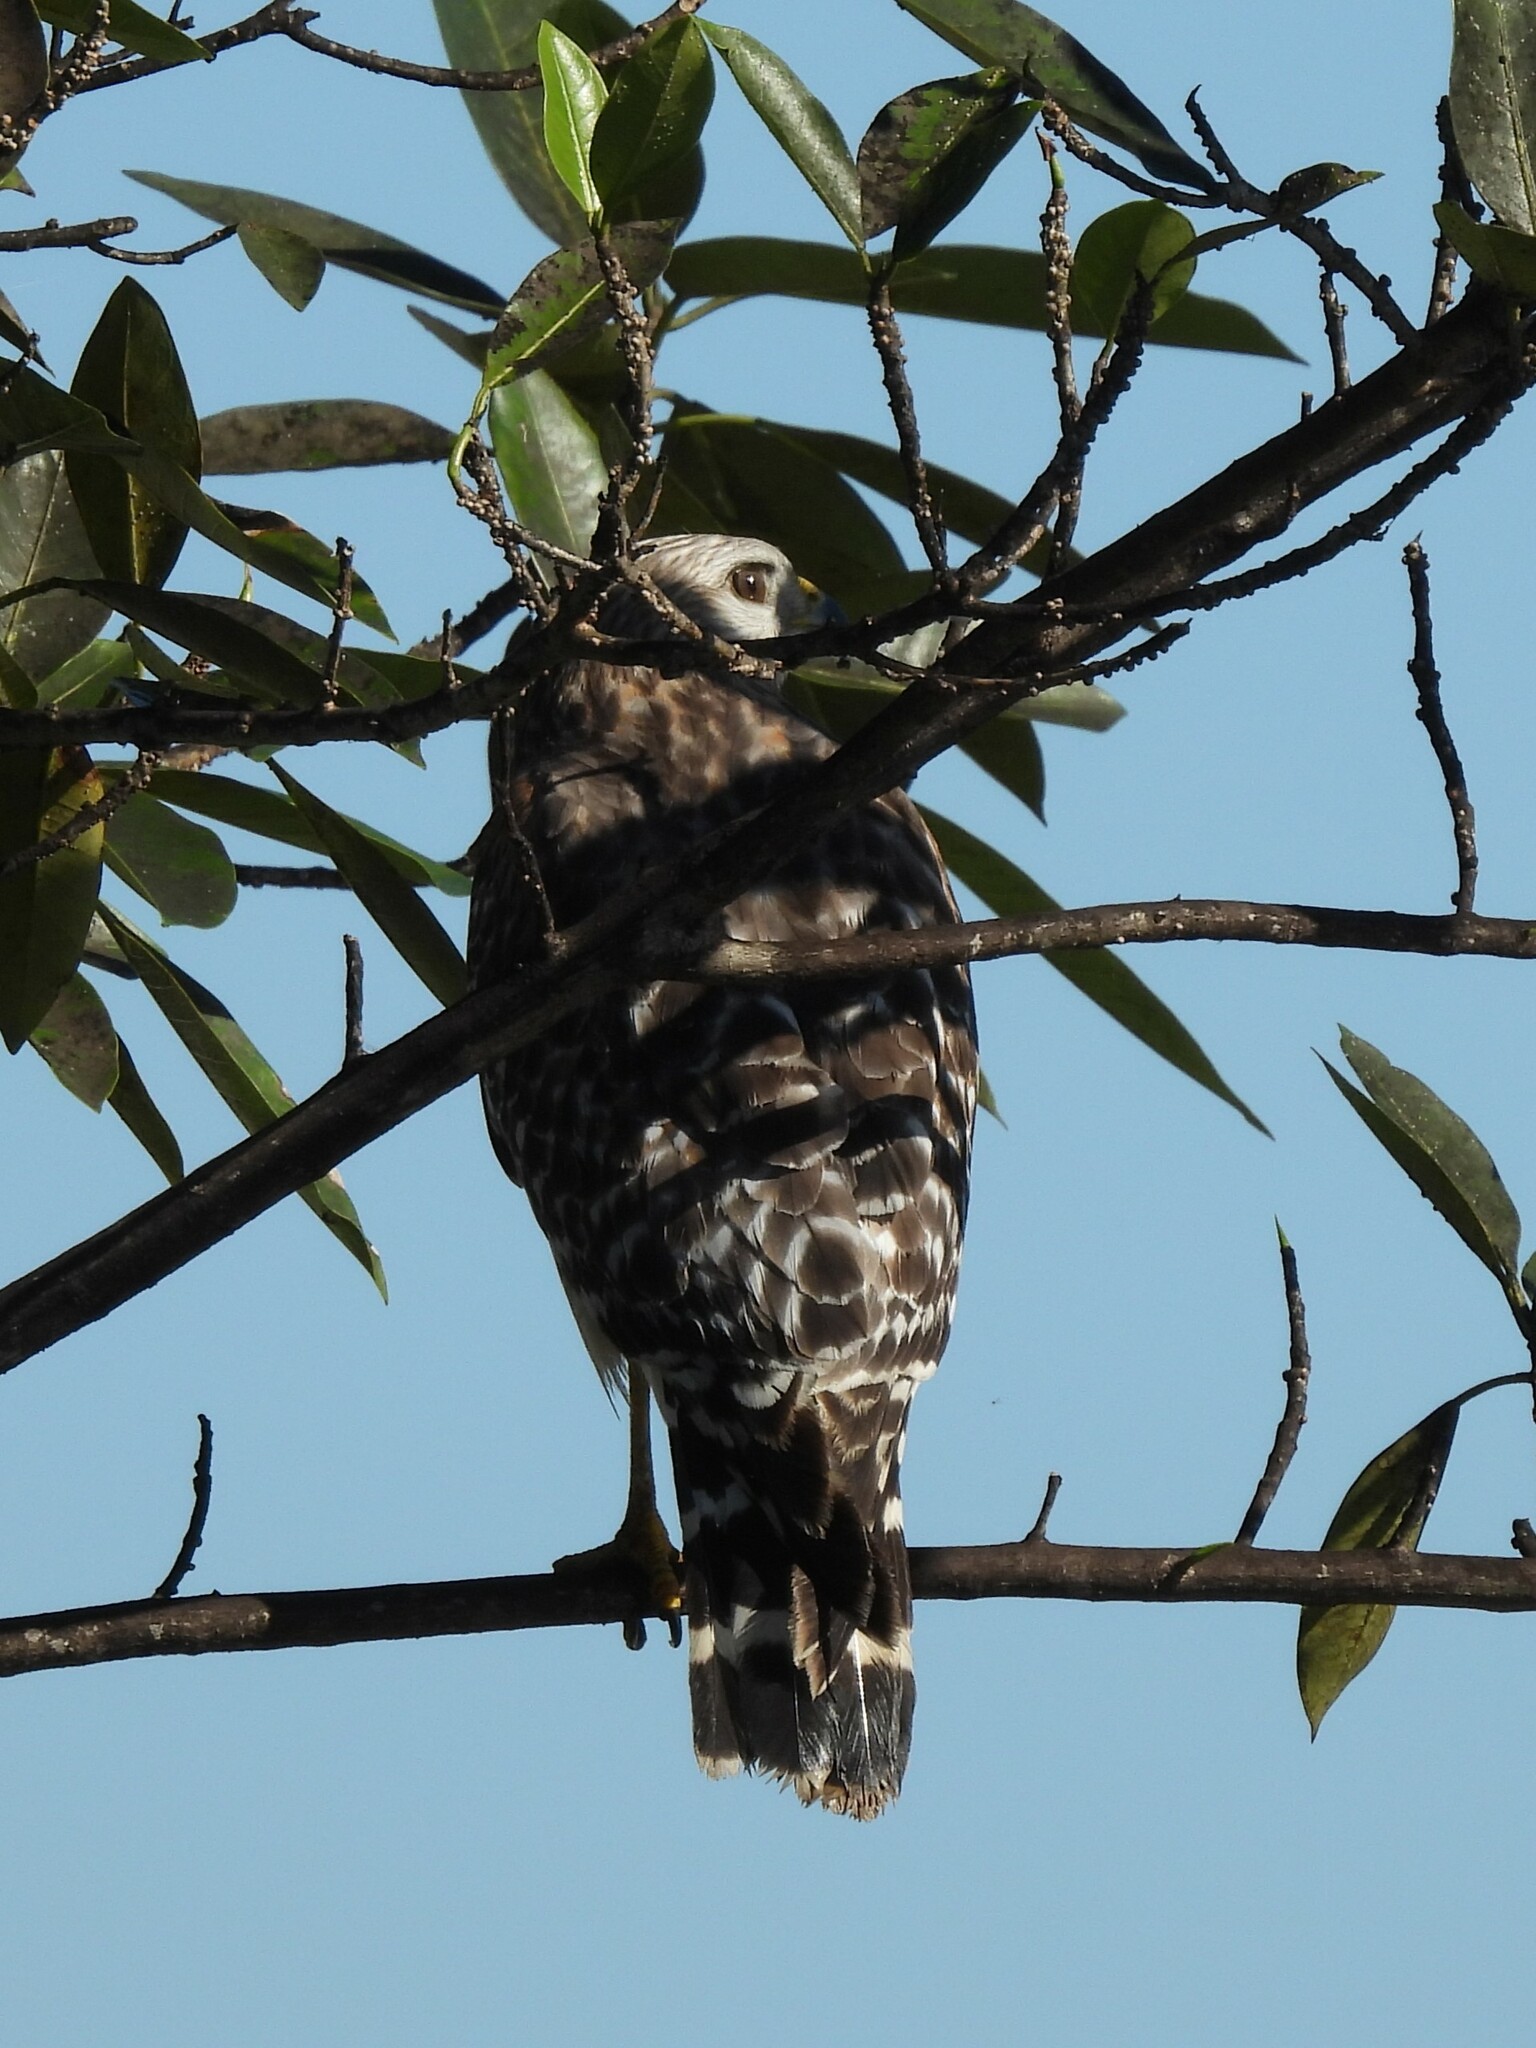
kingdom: Animalia
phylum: Chordata
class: Aves
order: Accipitriformes
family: Accipitridae
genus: Buteo
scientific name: Buteo lineatus
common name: Red-shouldered hawk
